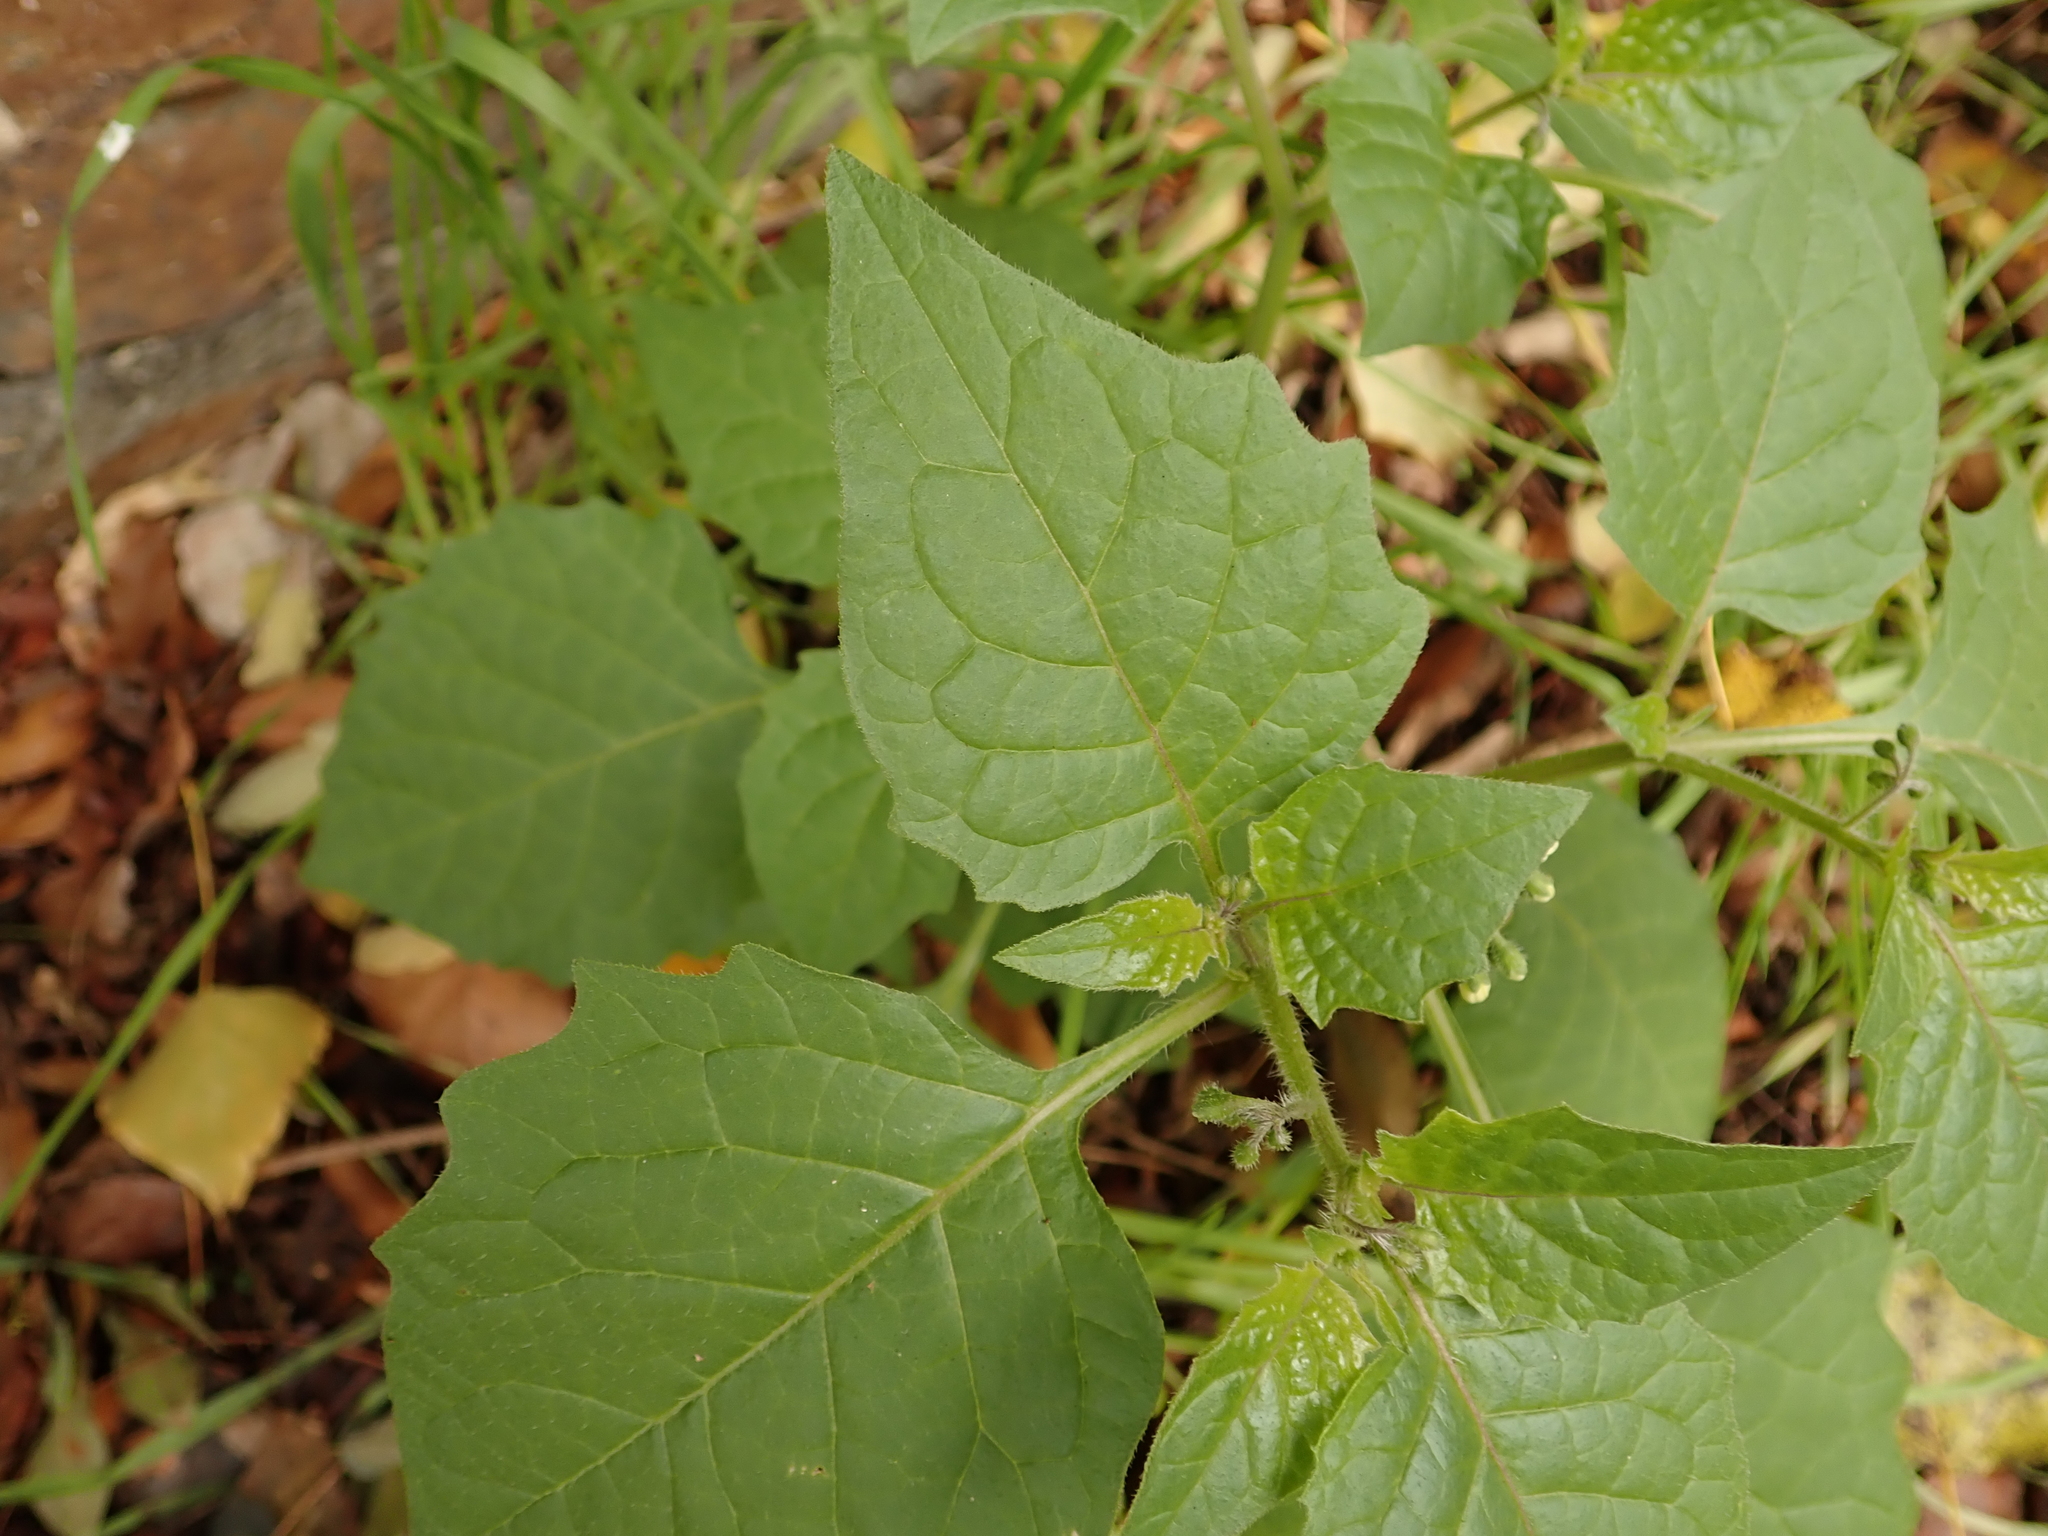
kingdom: Plantae
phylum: Tracheophyta
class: Magnoliopsida
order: Solanales
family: Solanaceae
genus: Solanum
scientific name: Solanum nigrum
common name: Black nightshade
